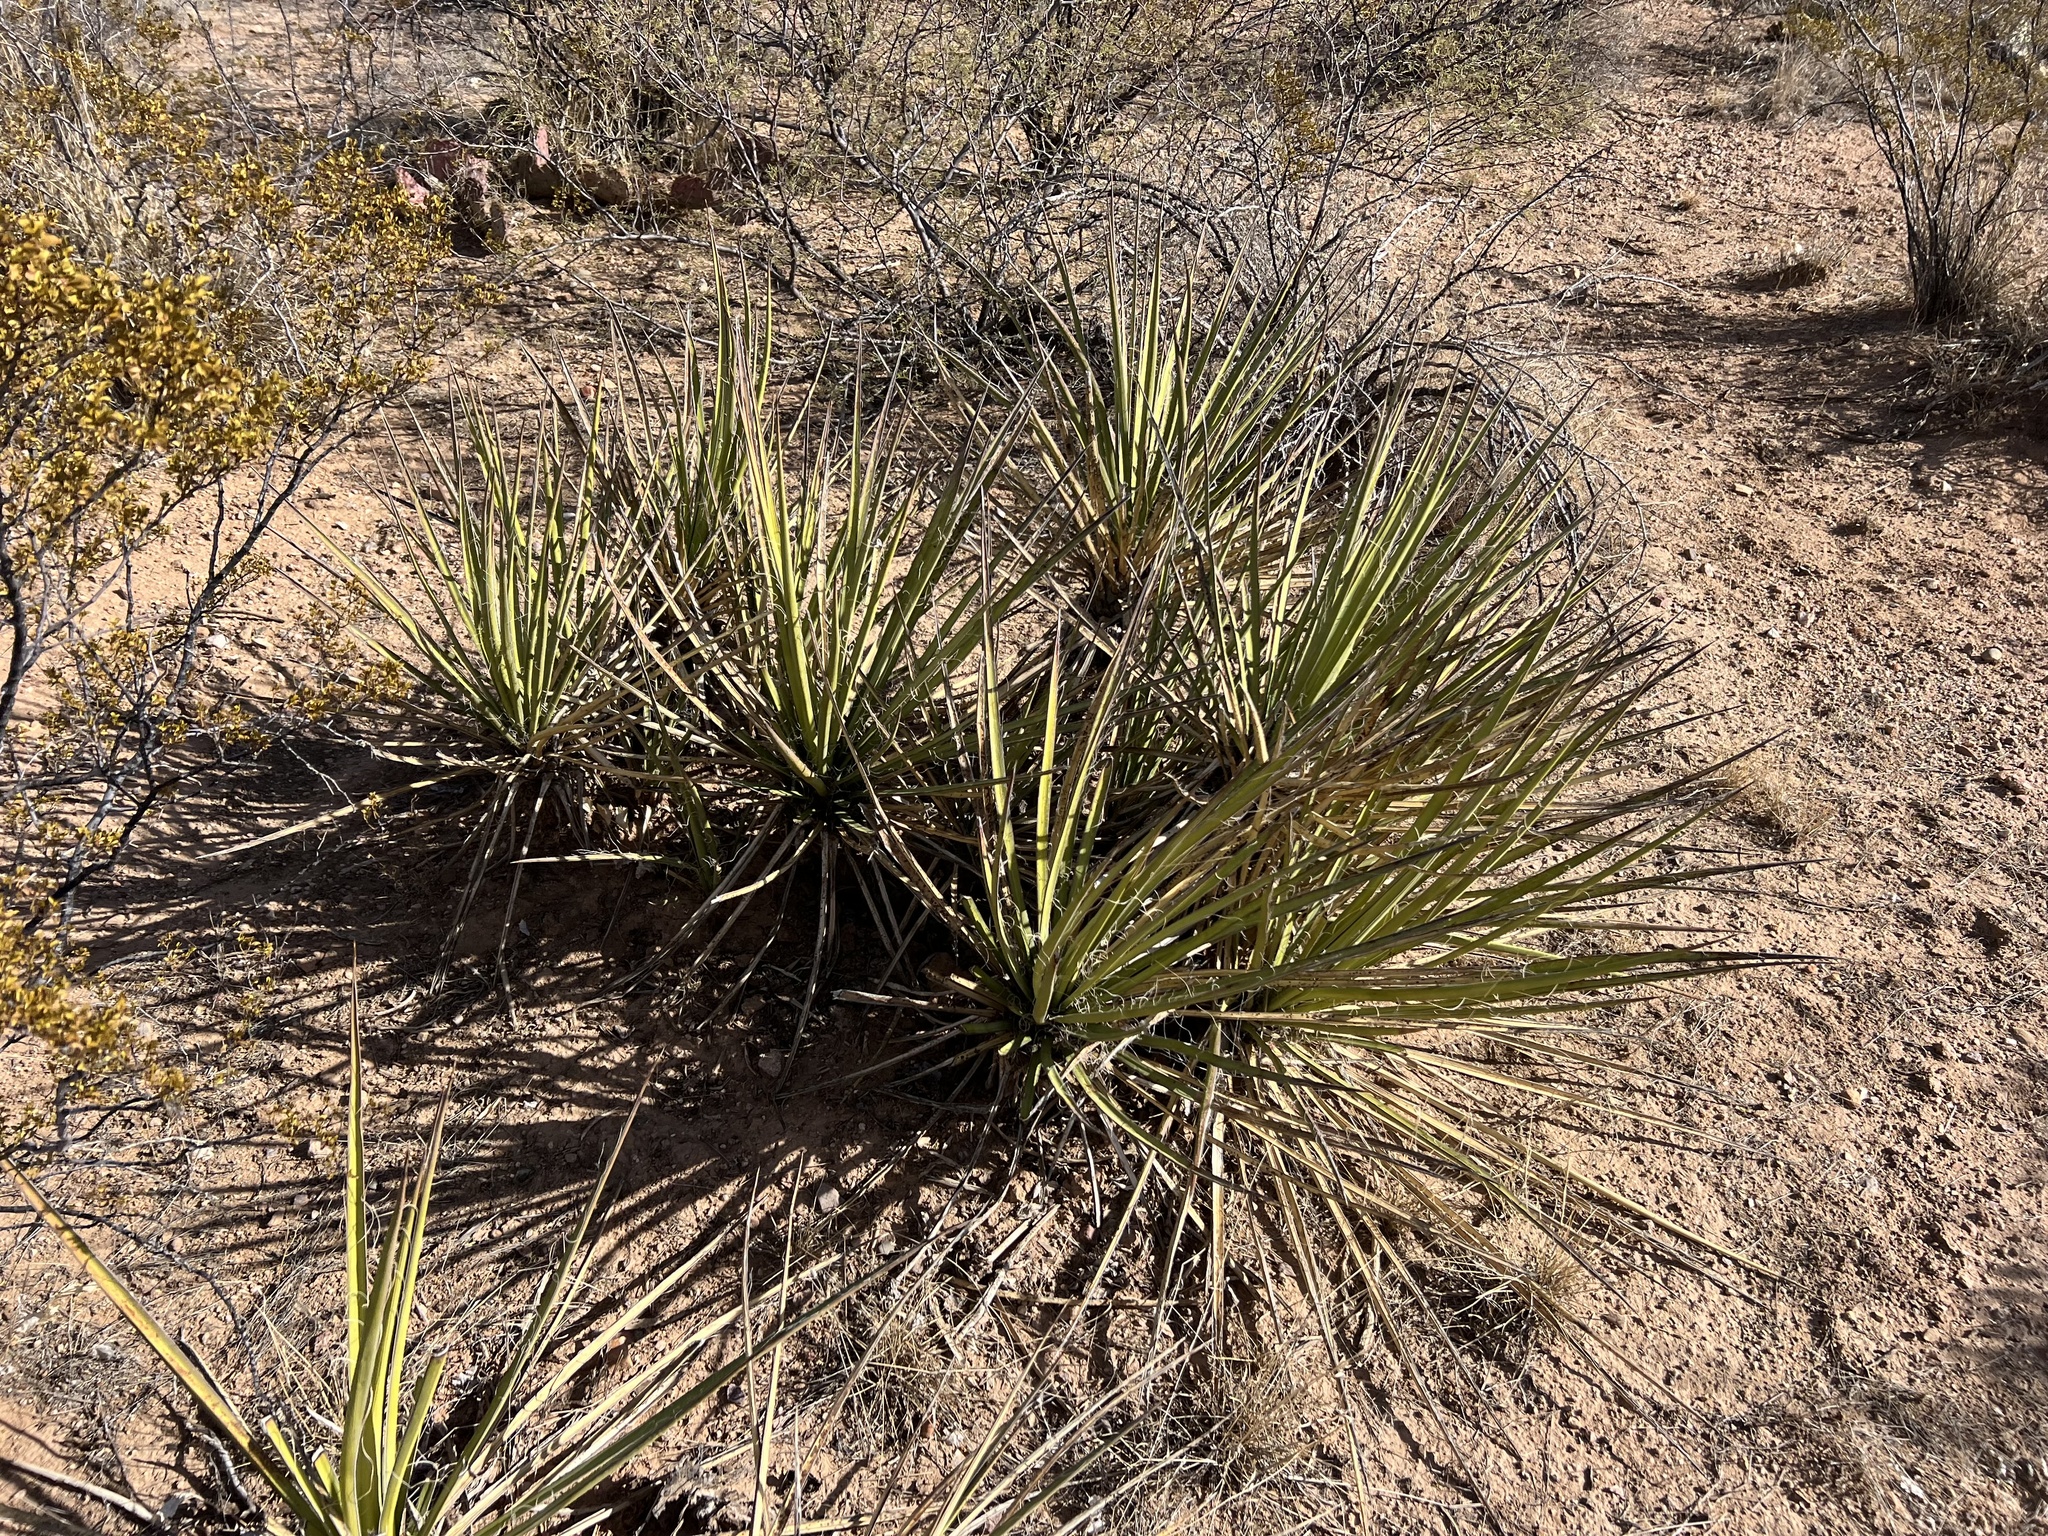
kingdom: Plantae
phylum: Tracheophyta
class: Liliopsida
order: Asparagales
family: Asparagaceae
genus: Yucca
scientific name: Yucca baccata
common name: Banana yucca
